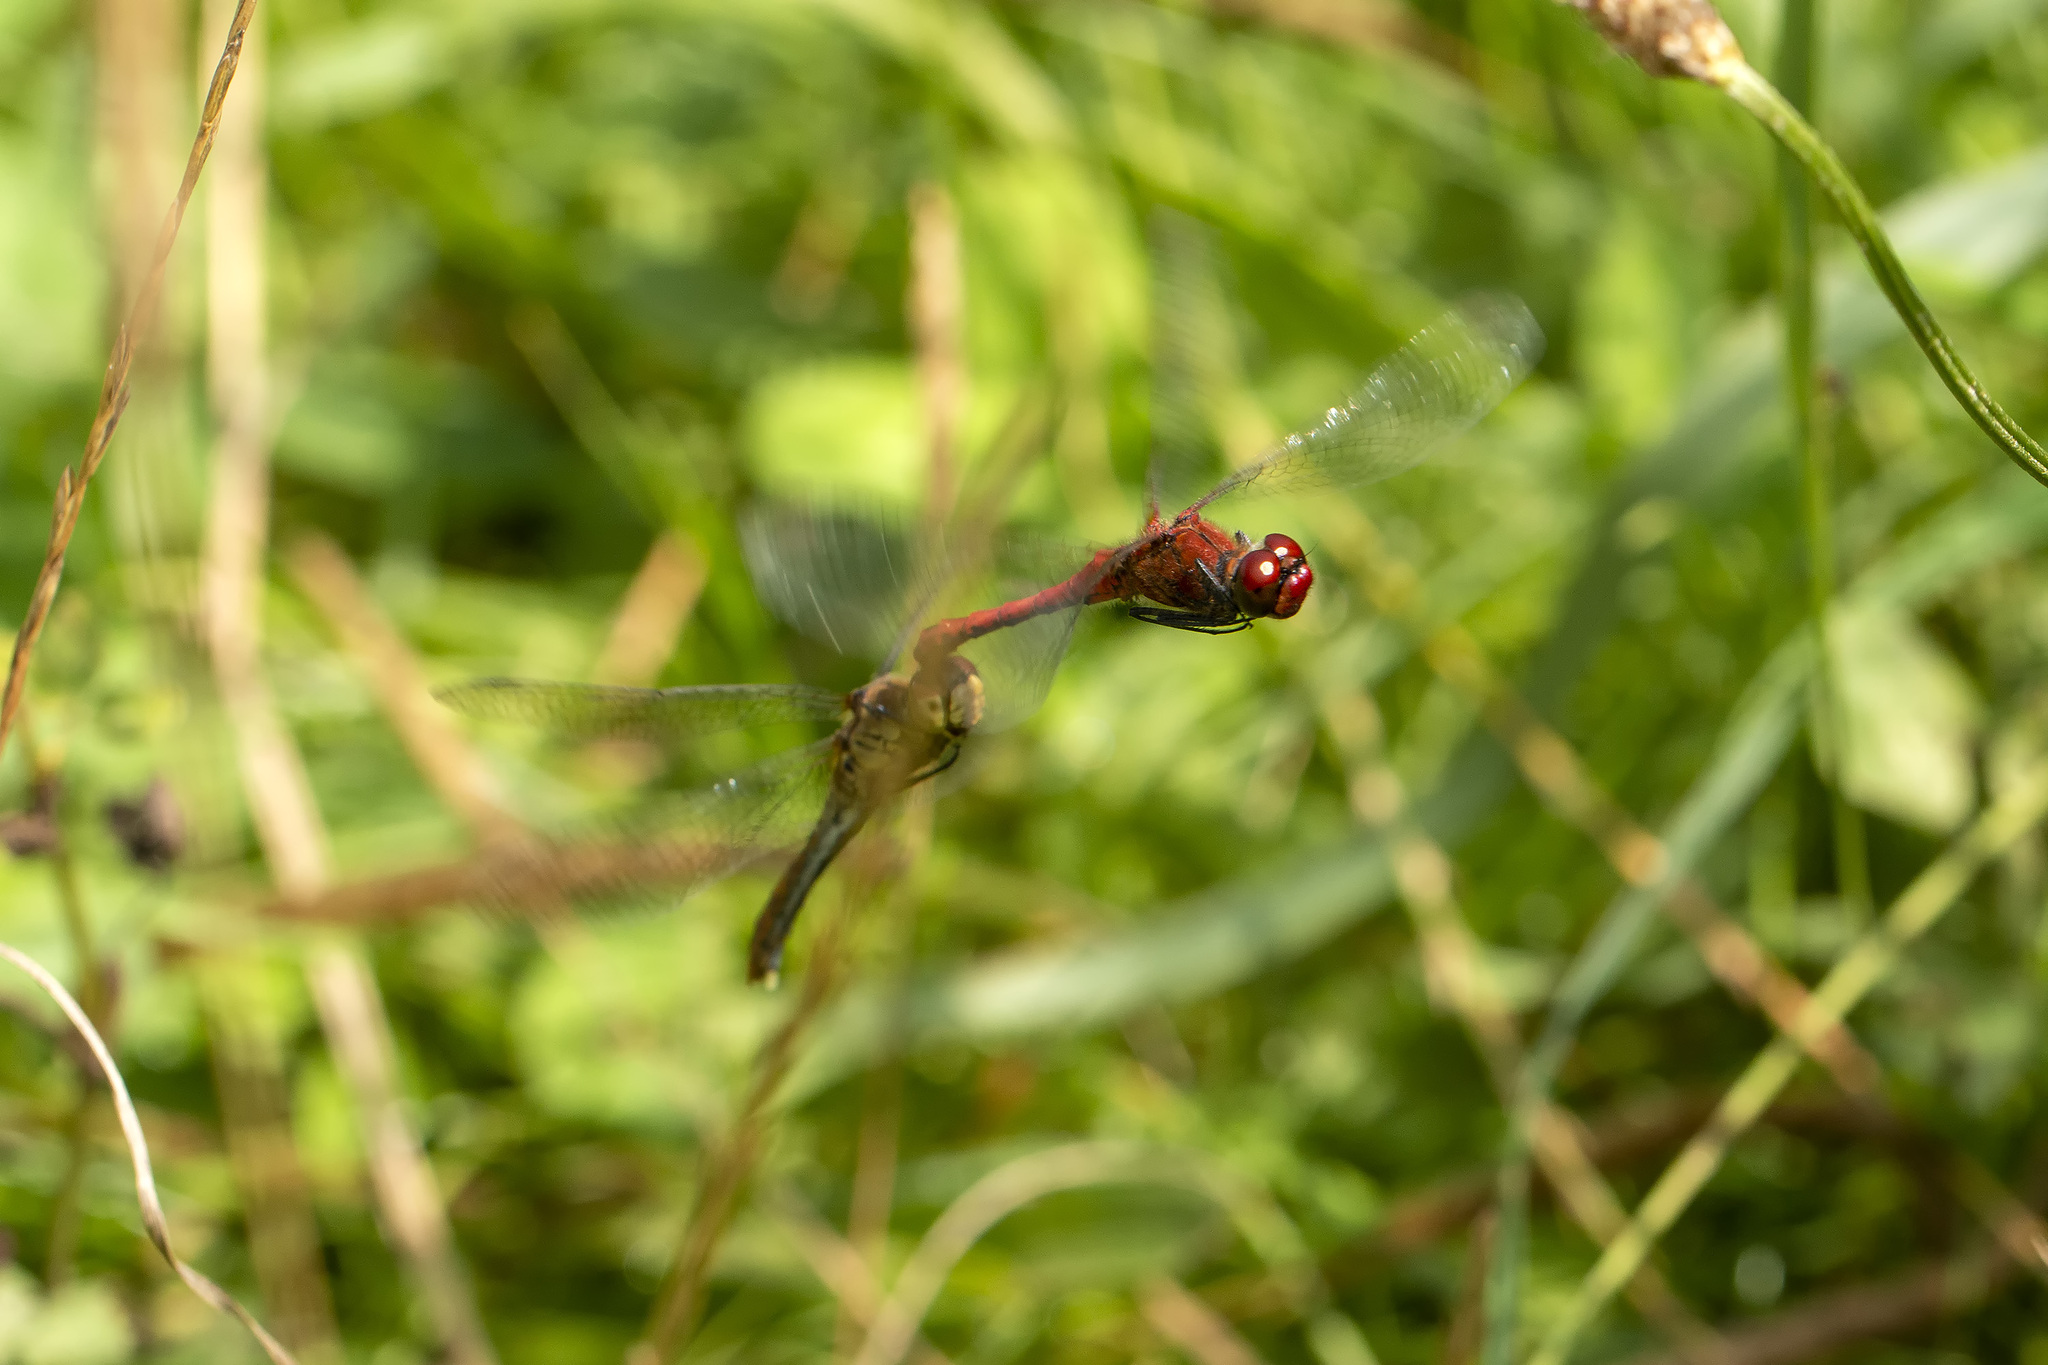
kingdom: Animalia
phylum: Arthropoda
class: Insecta
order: Odonata
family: Libellulidae
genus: Sympetrum
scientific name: Sympetrum sanguineum
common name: Ruddy darter
